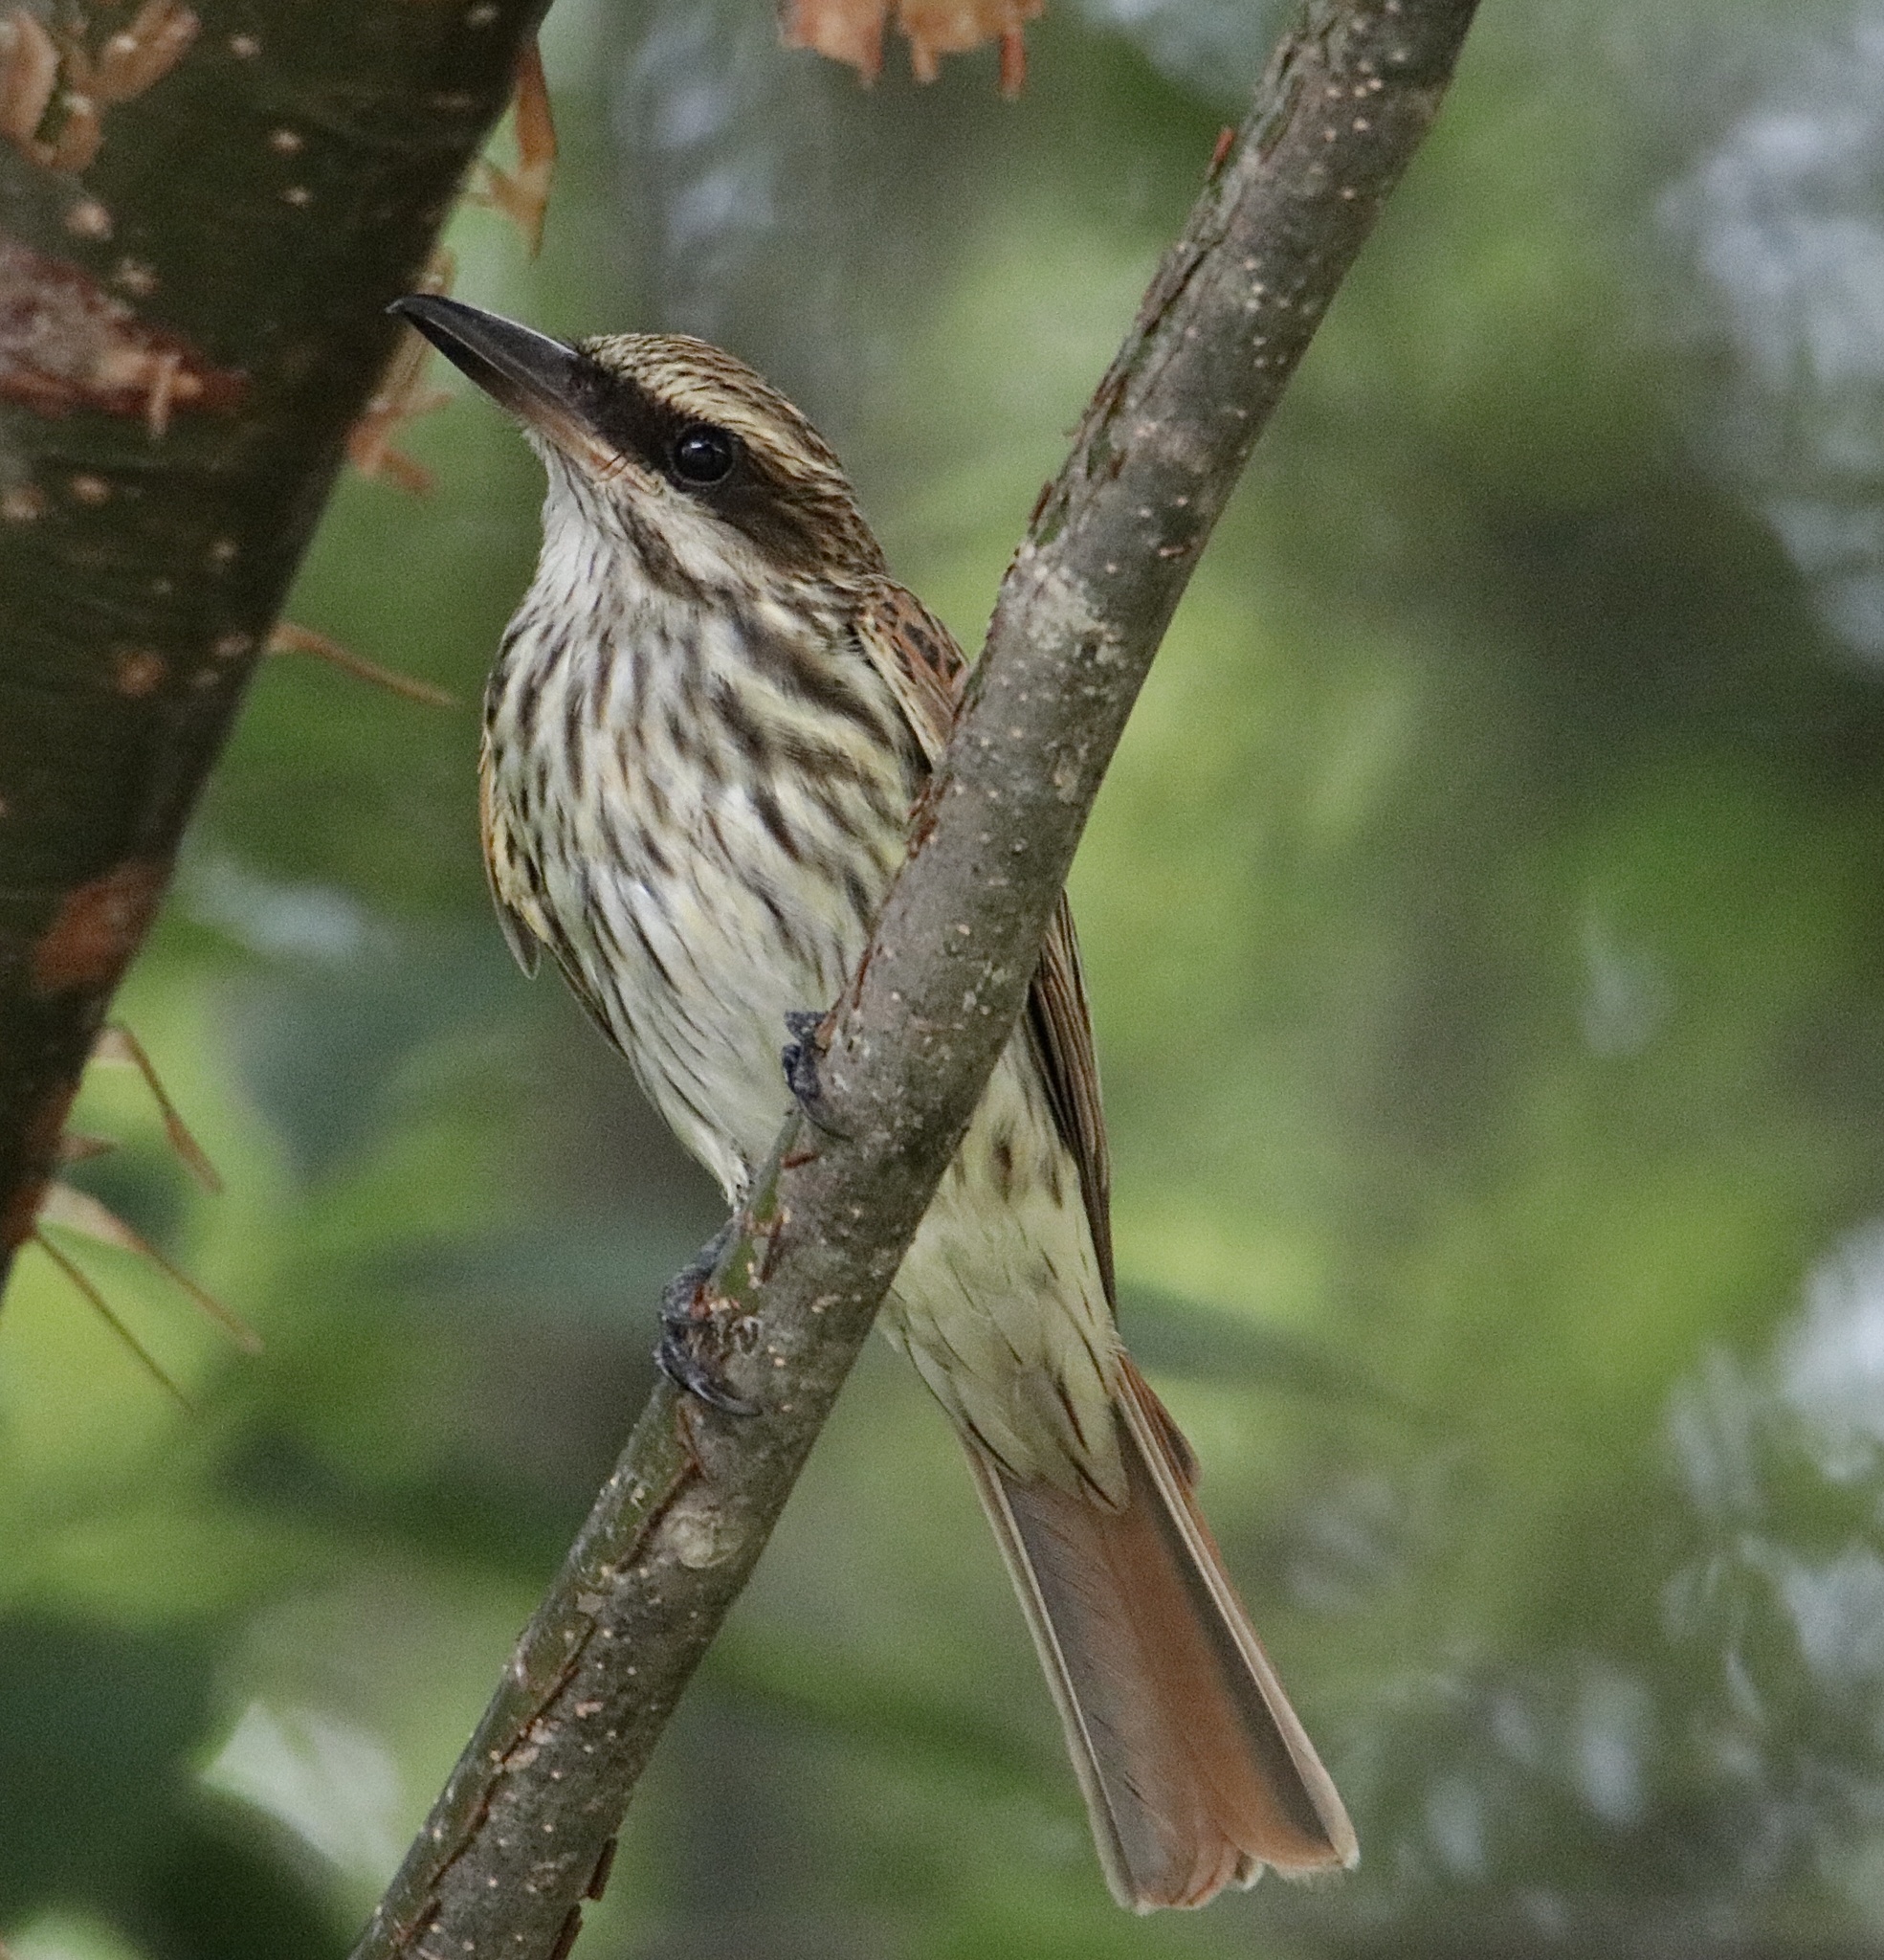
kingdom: Animalia
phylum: Chordata
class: Aves
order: Passeriformes
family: Tyrannidae
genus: Myiodynastes
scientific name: Myiodynastes maculatus
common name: Streaked flycatcher
